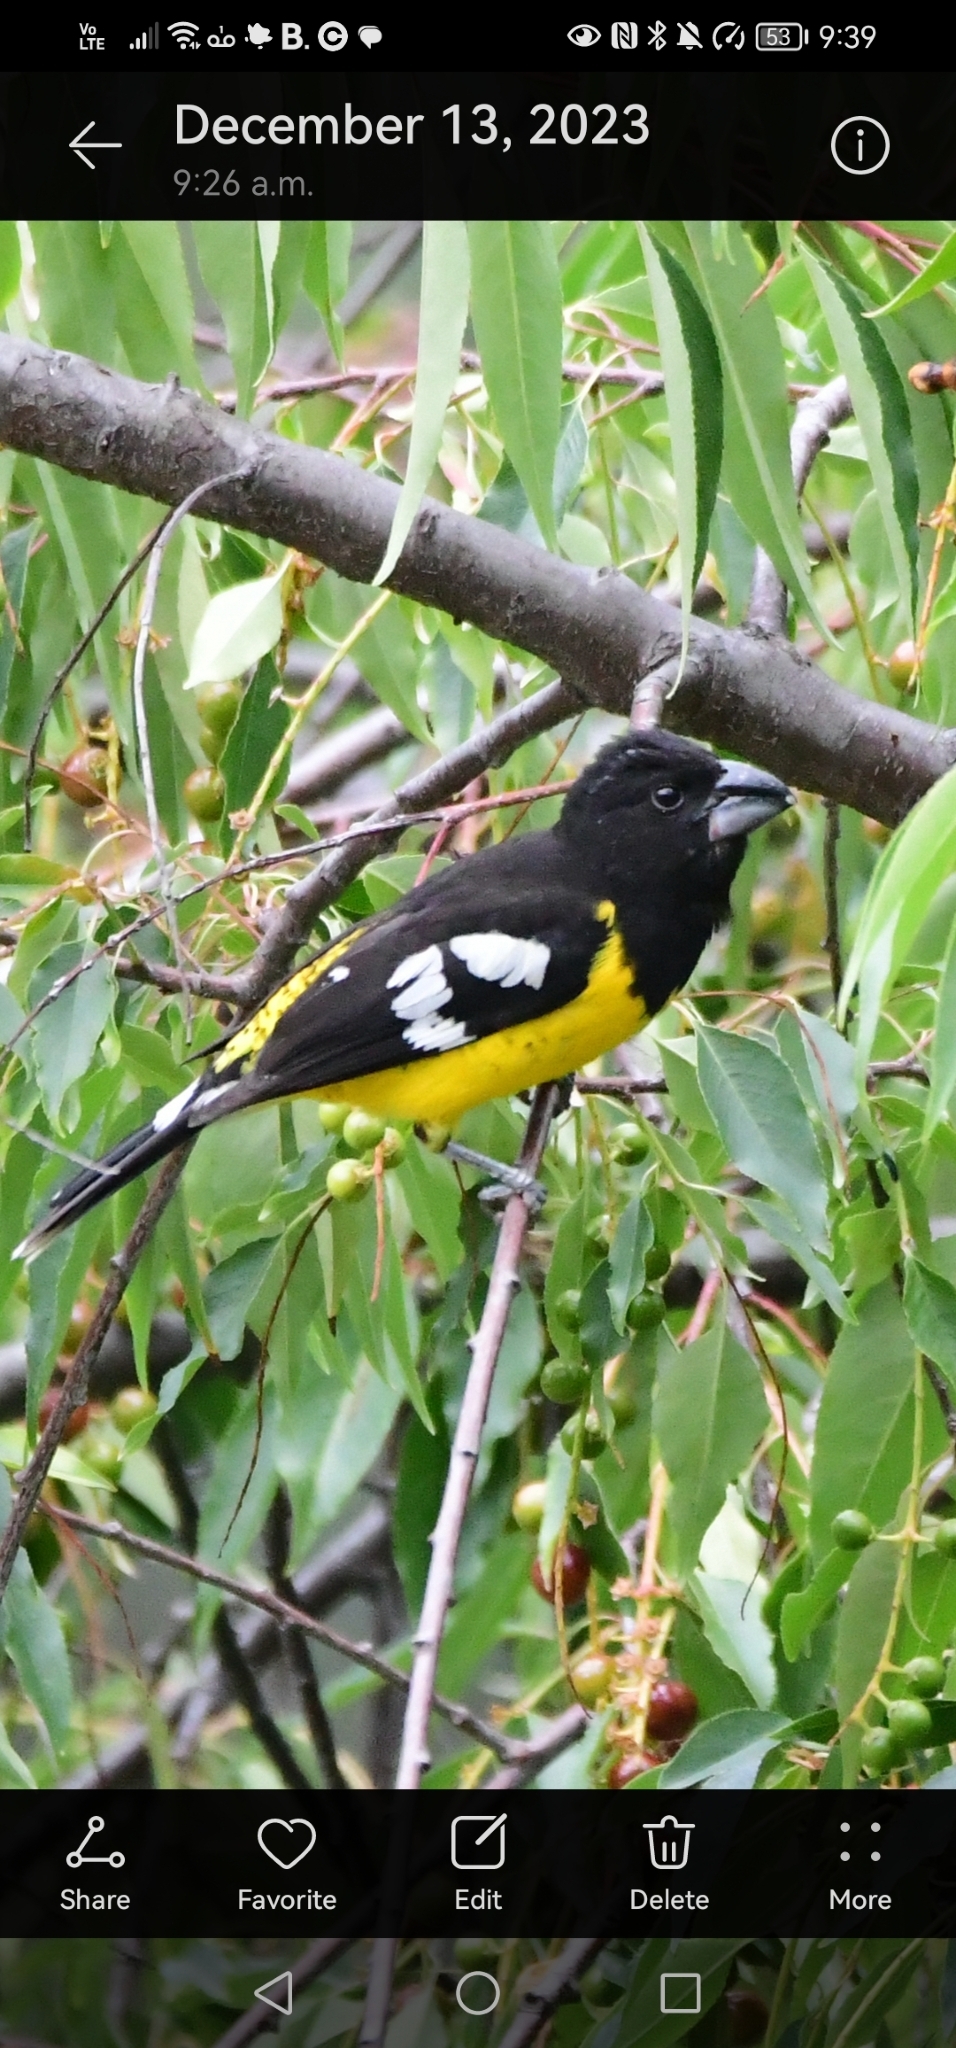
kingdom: Animalia
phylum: Chordata
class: Aves
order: Passeriformes
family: Cardinalidae
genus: Pheucticus
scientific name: Pheucticus aureoventris
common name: Black-backed grosbeak
